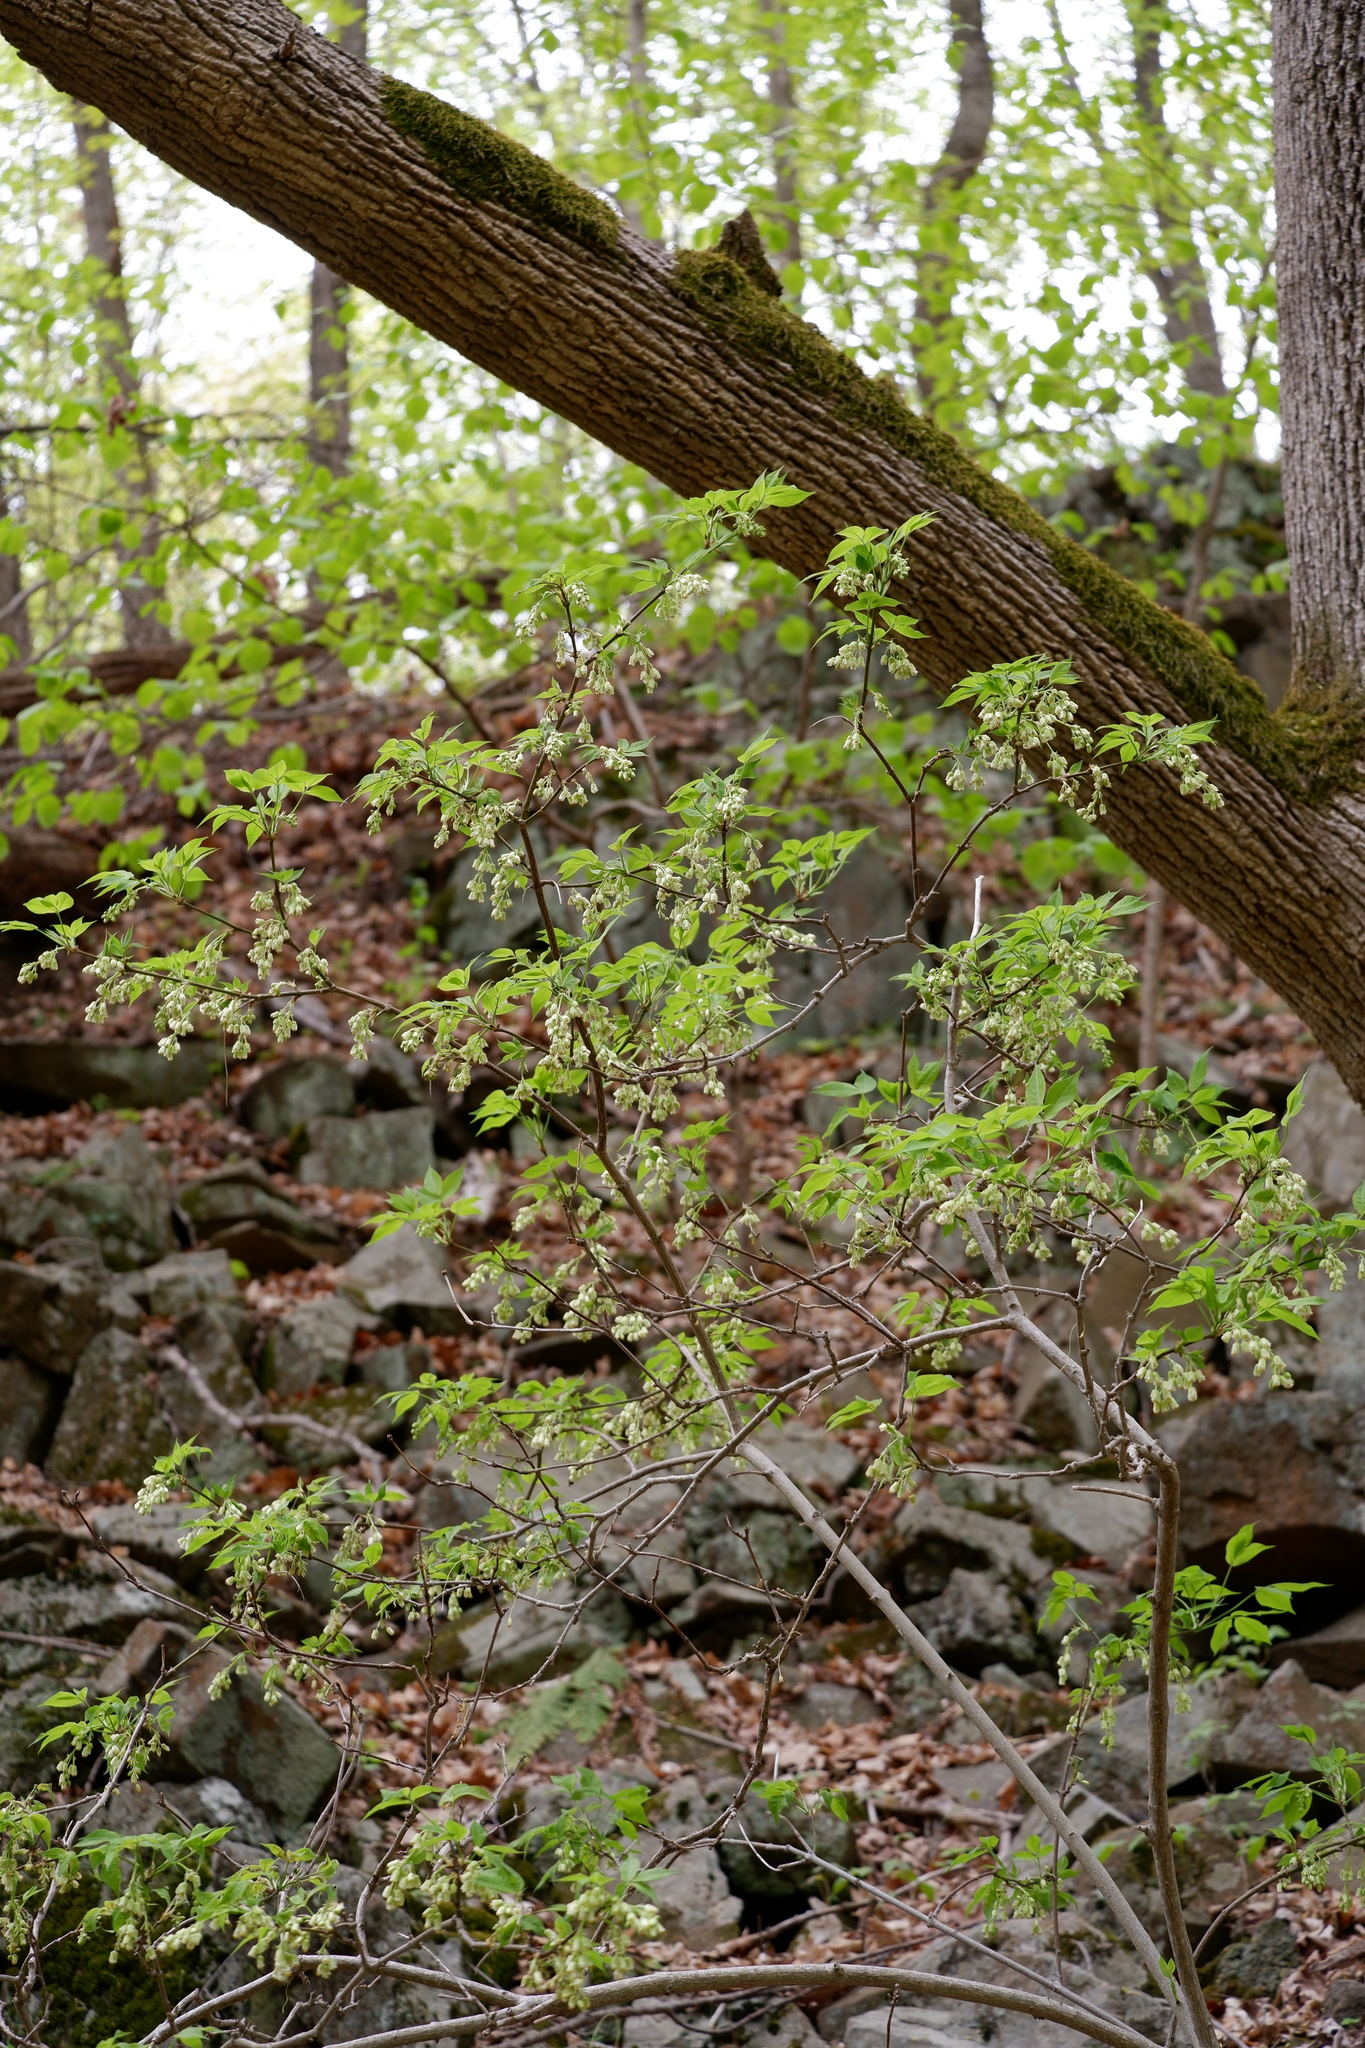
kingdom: Plantae
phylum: Tracheophyta
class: Magnoliopsida
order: Crossosomatales
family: Staphyleaceae
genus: Staphylea
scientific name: Staphylea trifolia
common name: American bladdernut
